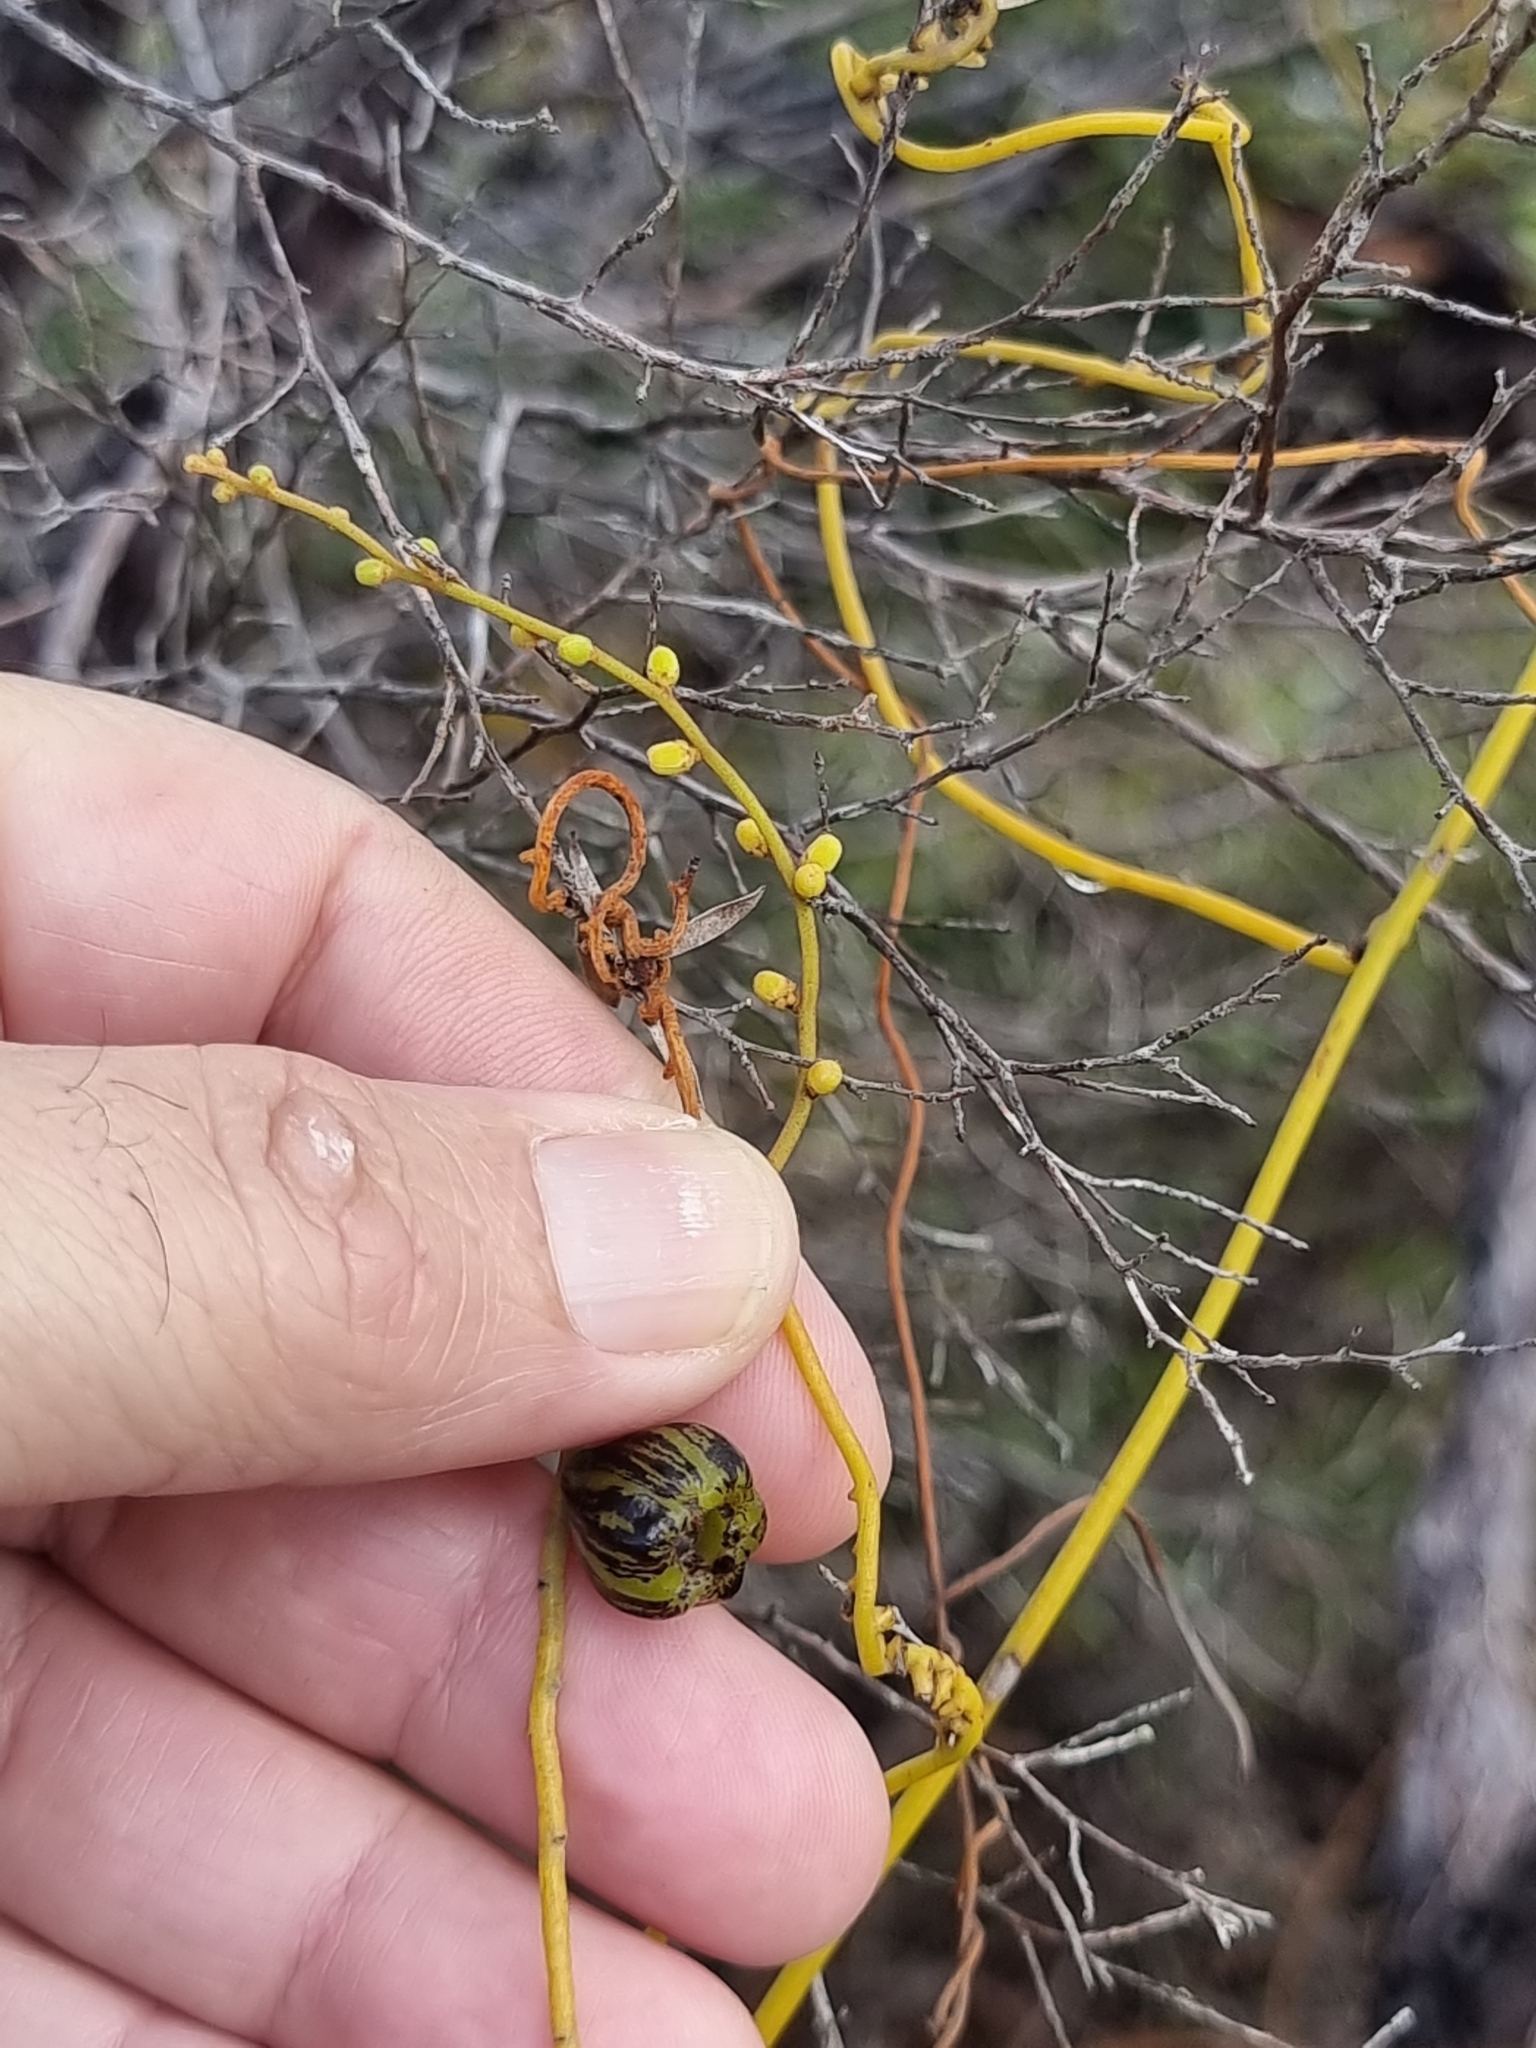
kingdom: Plantae
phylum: Tracheophyta
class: Magnoliopsida
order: Laurales
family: Lauraceae
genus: Cassytha
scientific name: Cassytha pubescens
